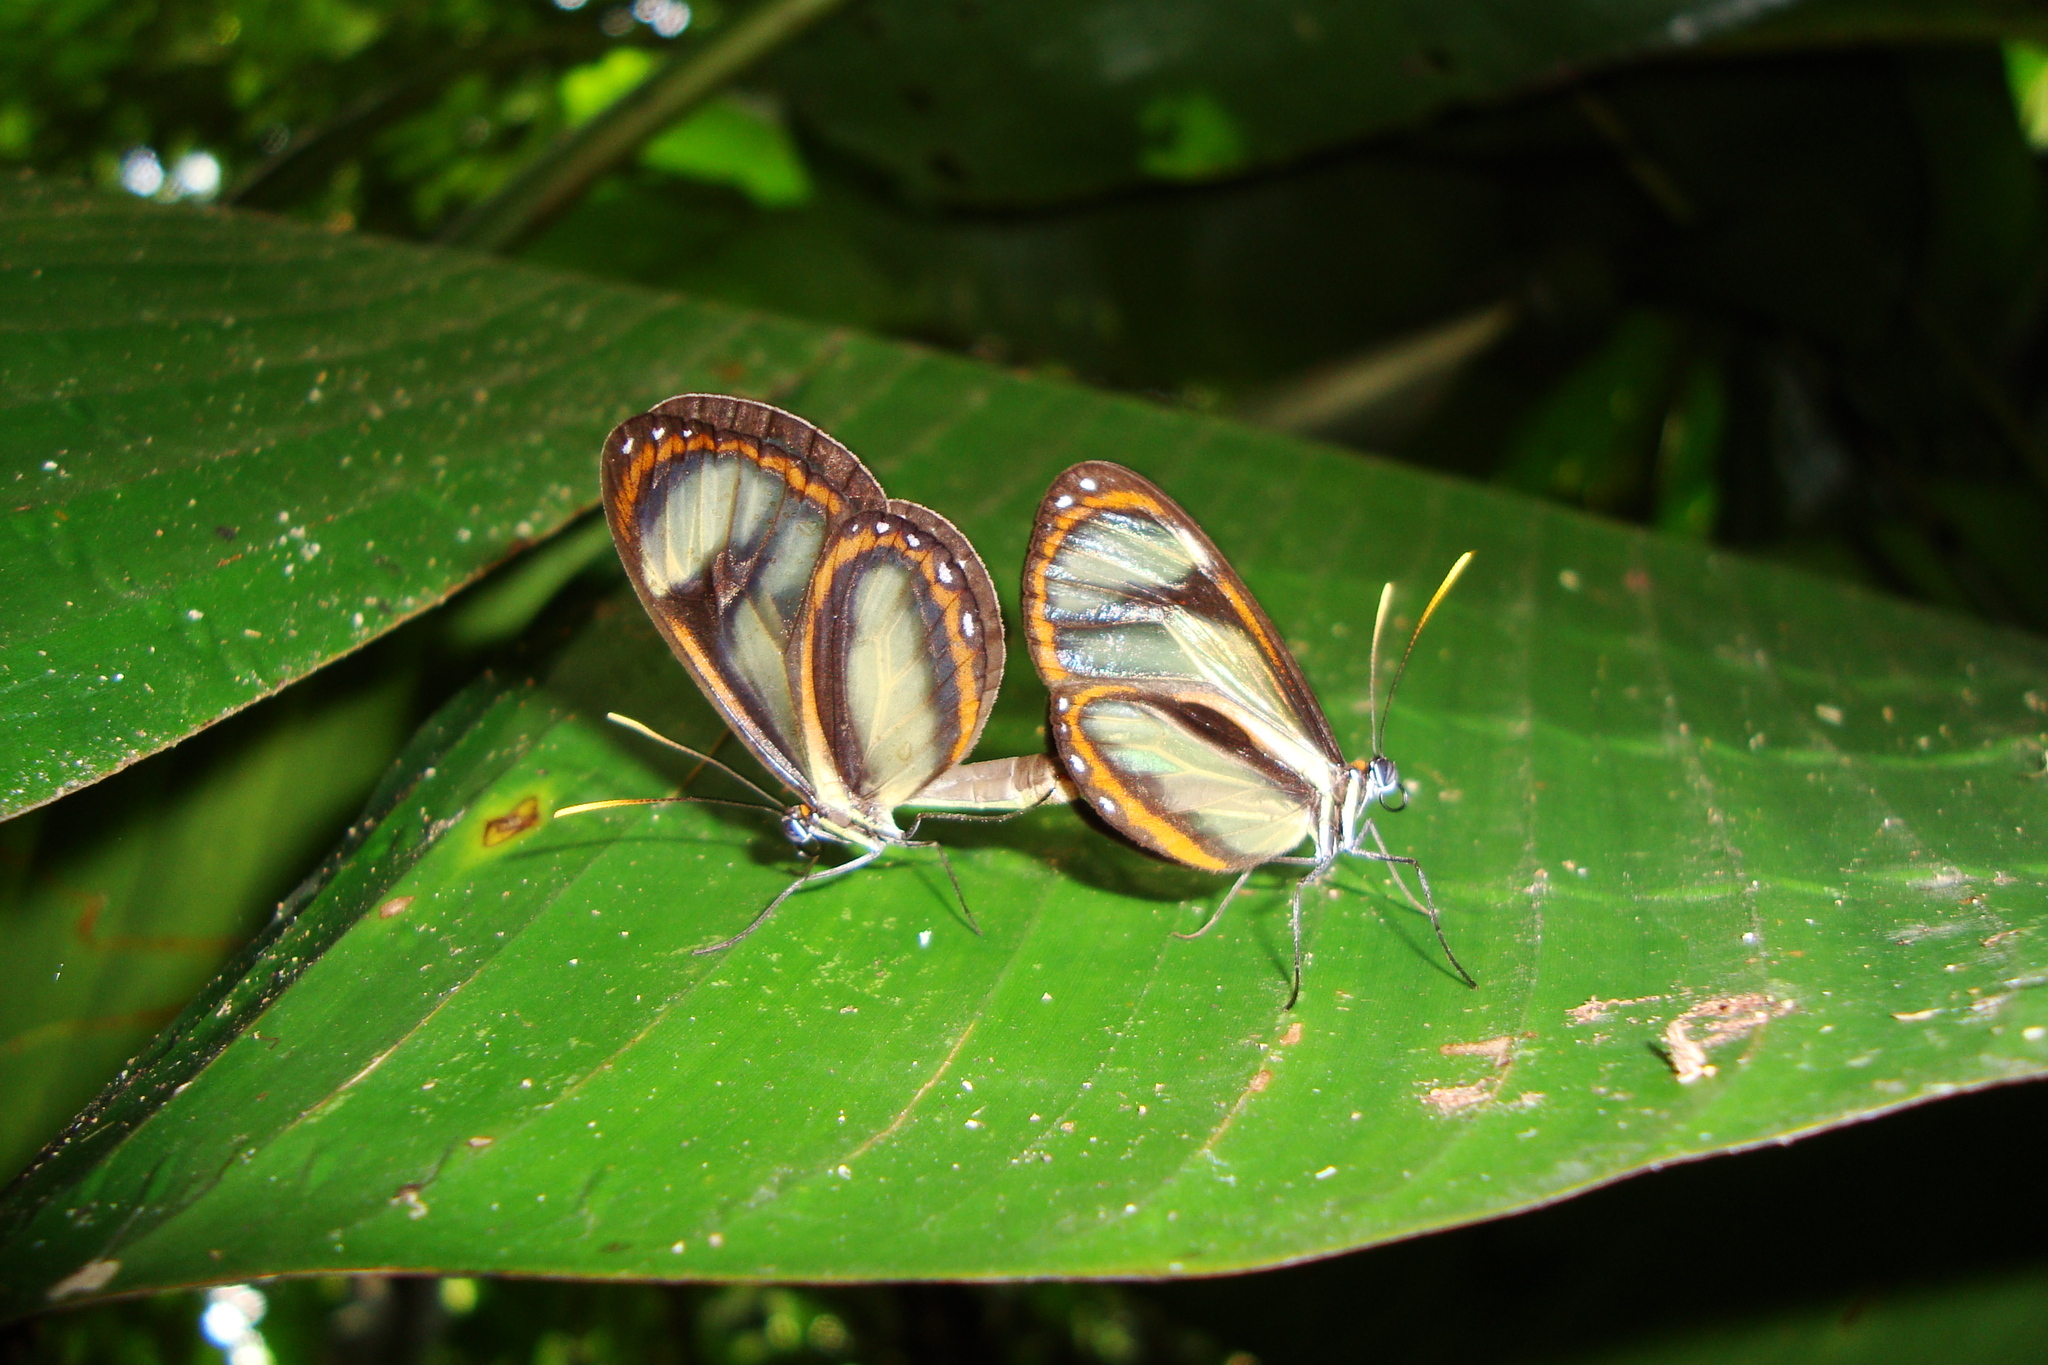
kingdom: Animalia
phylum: Arthropoda
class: Insecta
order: Lepidoptera
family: Nymphalidae
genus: Ithomia
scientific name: Ithomia salapia
